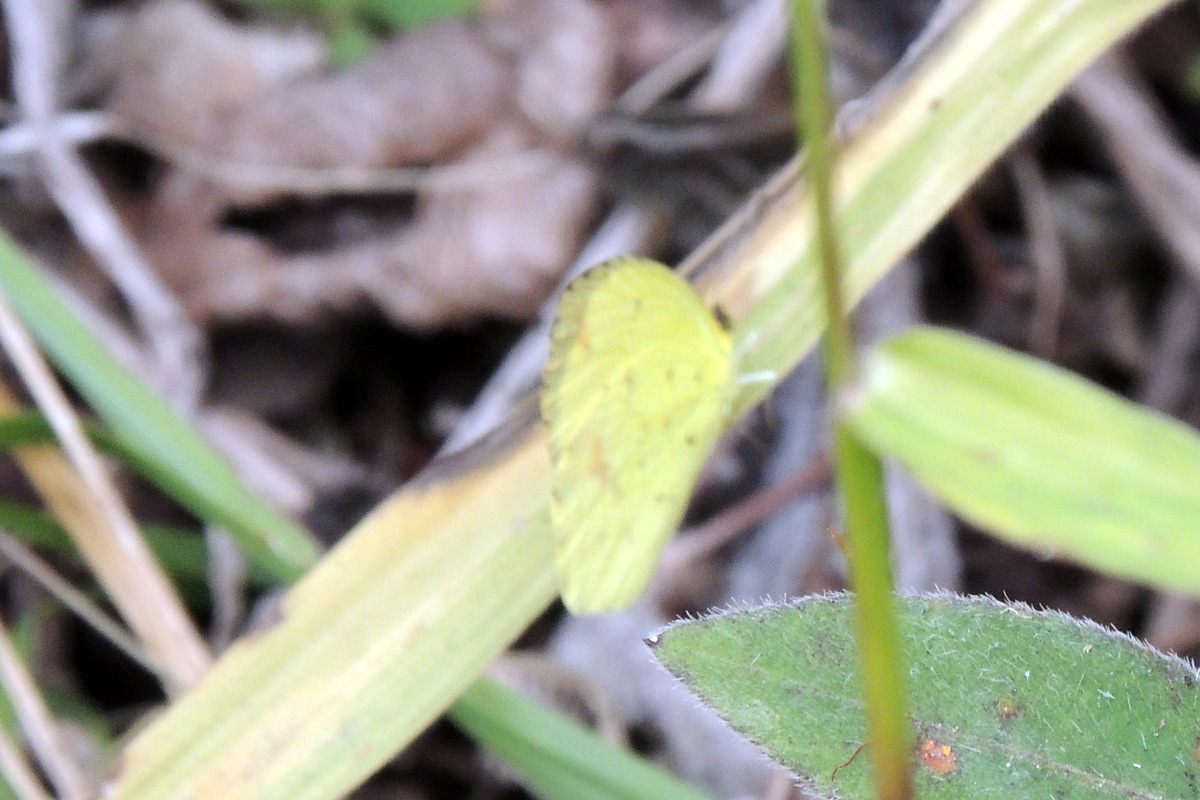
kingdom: Animalia
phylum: Arthropoda
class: Insecta
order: Lepidoptera
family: Pieridae
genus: Eurema
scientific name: Eurema desjardinsii
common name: Angled grass yellow
